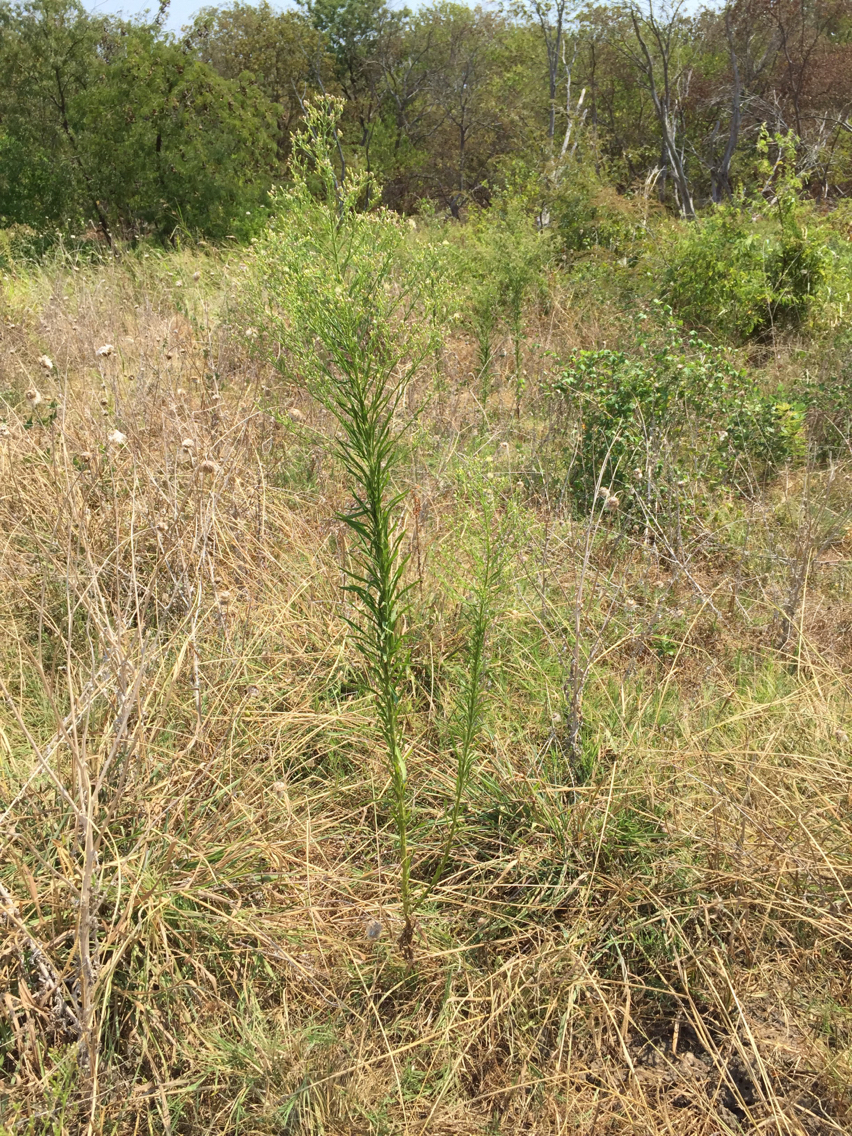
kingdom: Plantae
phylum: Tracheophyta
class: Magnoliopsida
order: Asterales
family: Asteraceae
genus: Erigeron
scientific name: Erigeron canadensis
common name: Canadian fleabane
